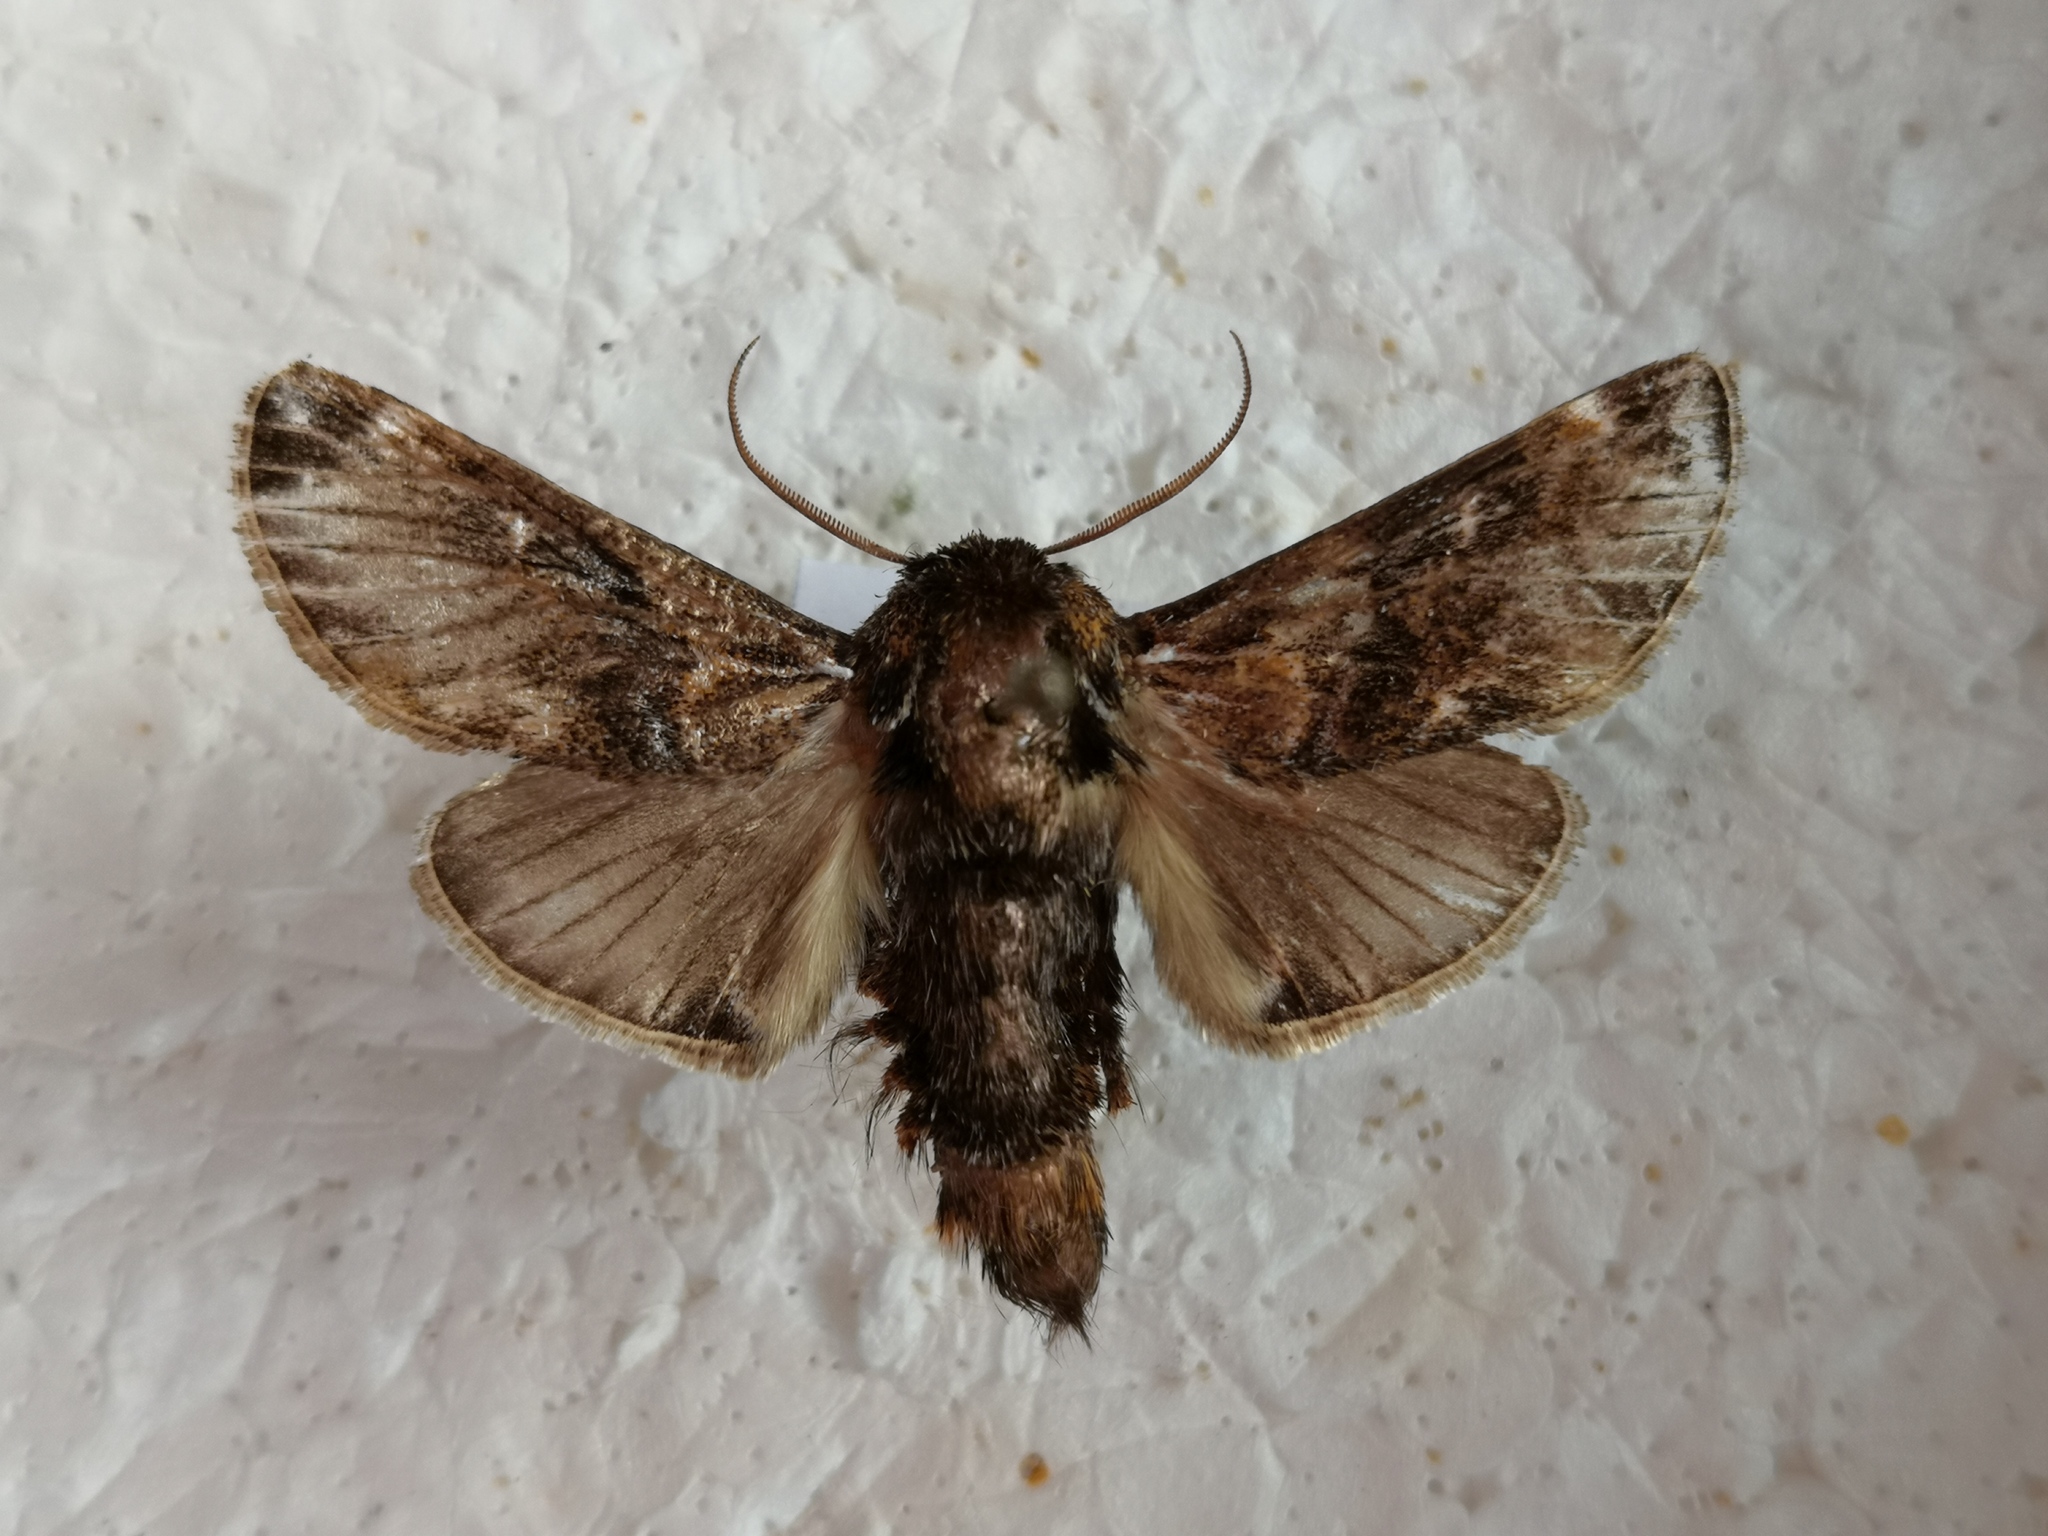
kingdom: Animalia
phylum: Arthropoda
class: Insecta
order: Lepidoptera
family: Limacodidae
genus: Belippa
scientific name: Belippa horrida
